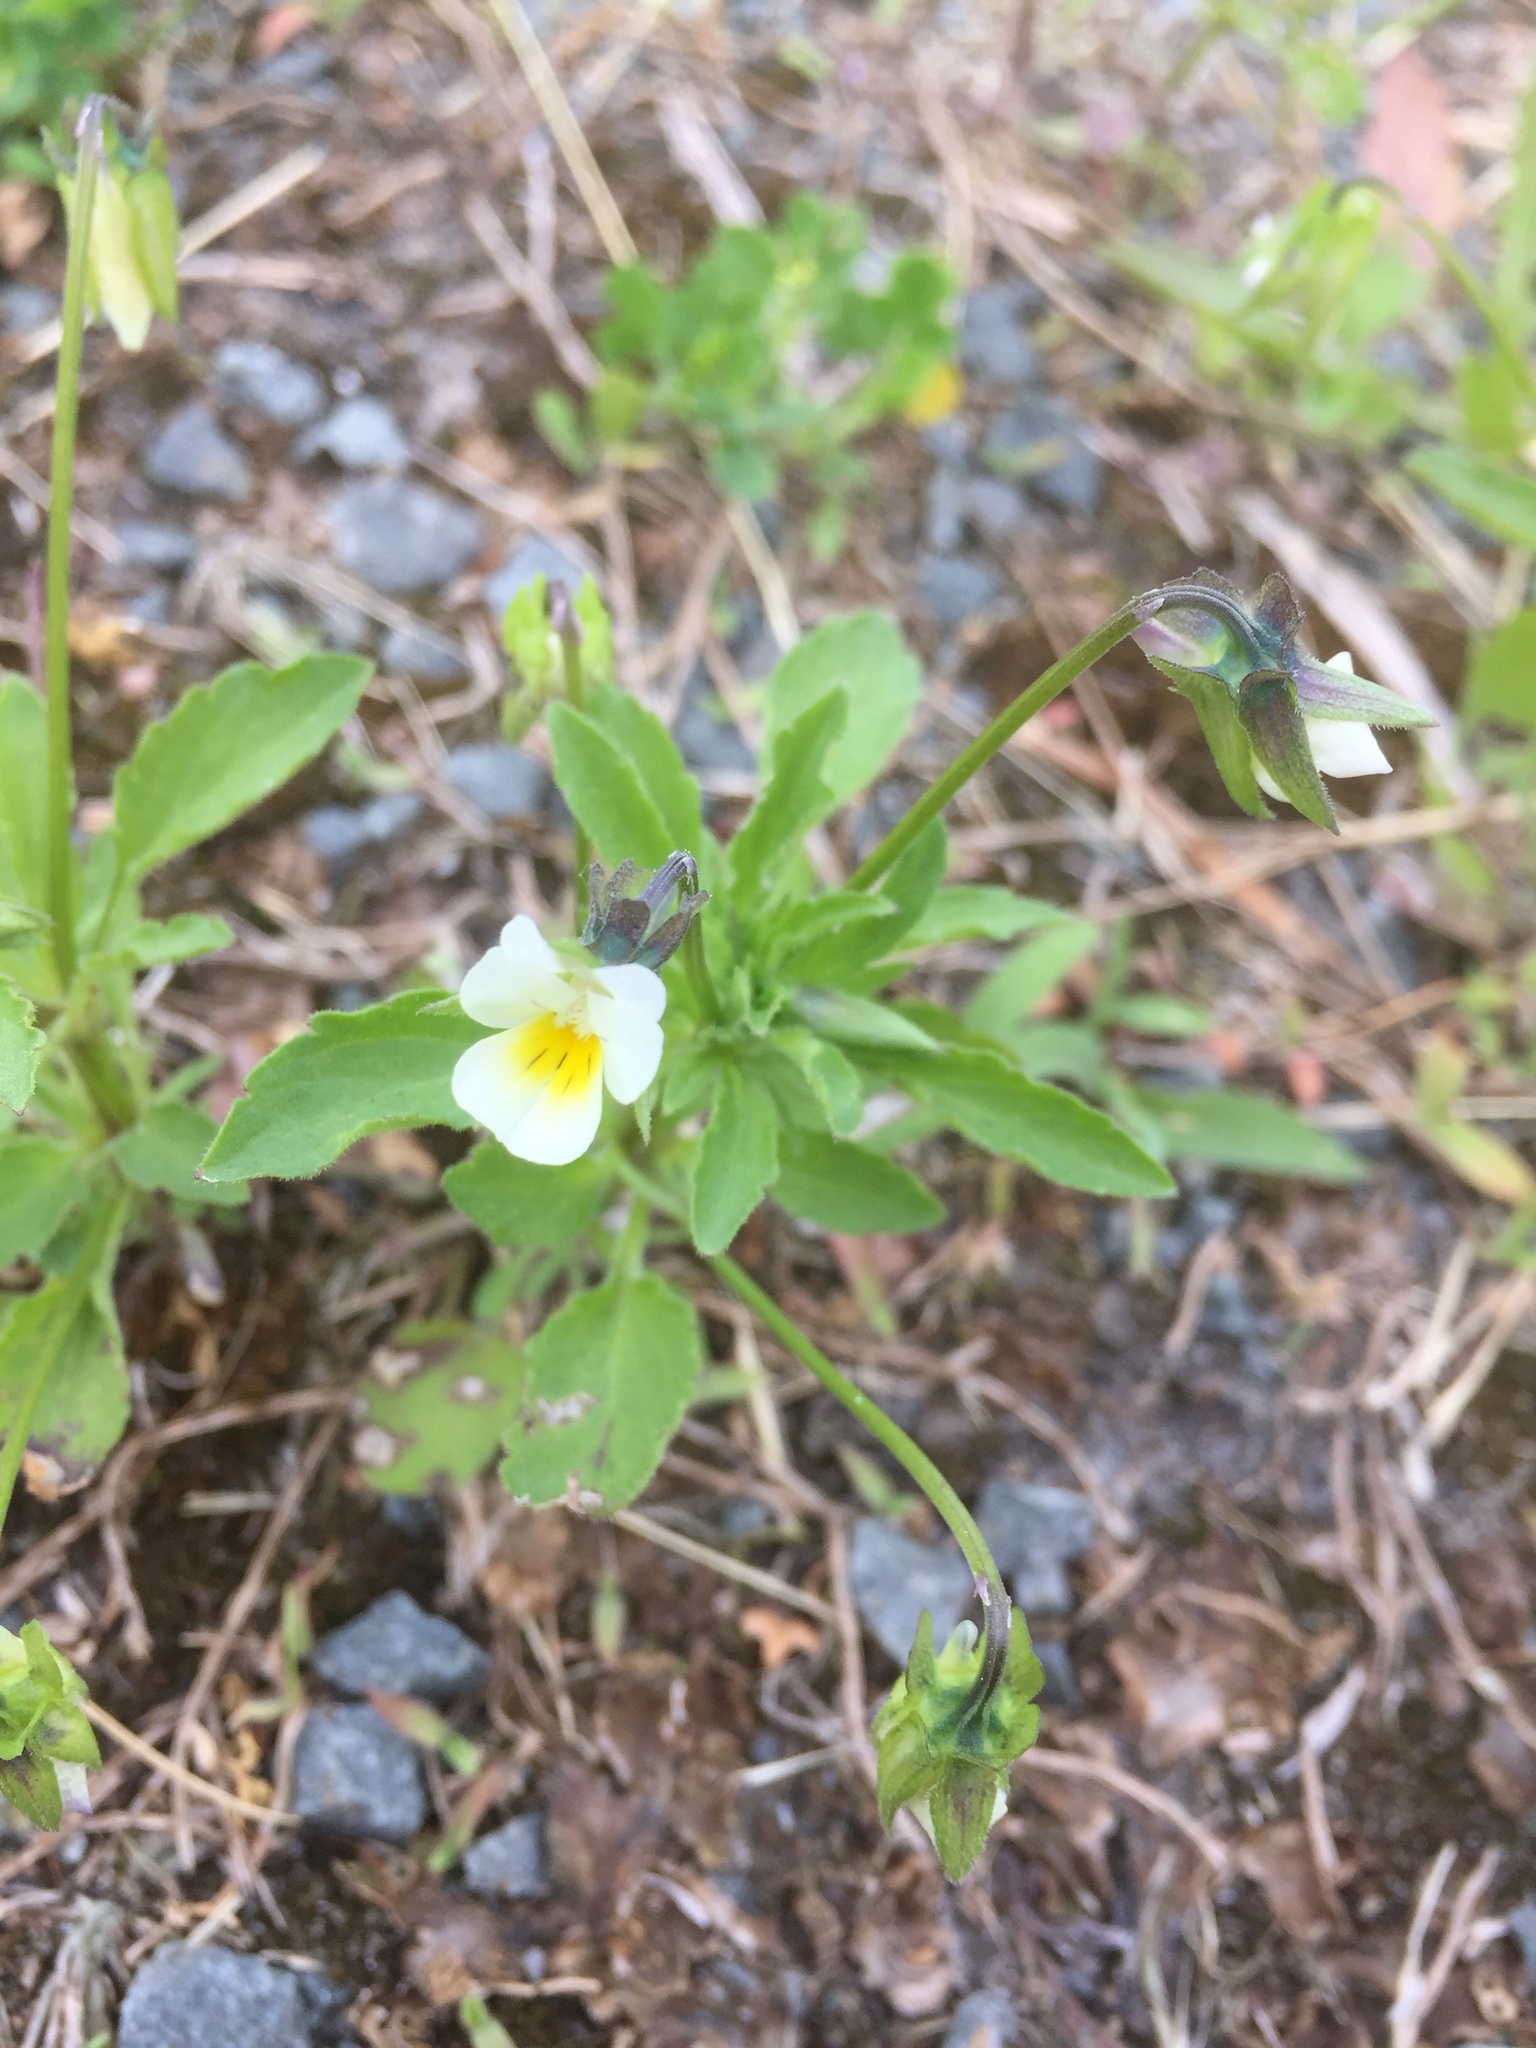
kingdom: Plantae
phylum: Tracheophyta
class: Magnoliopsida
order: Malpighiales
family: Violaceae
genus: Viola
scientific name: Viola arvensis
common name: Field pansy
